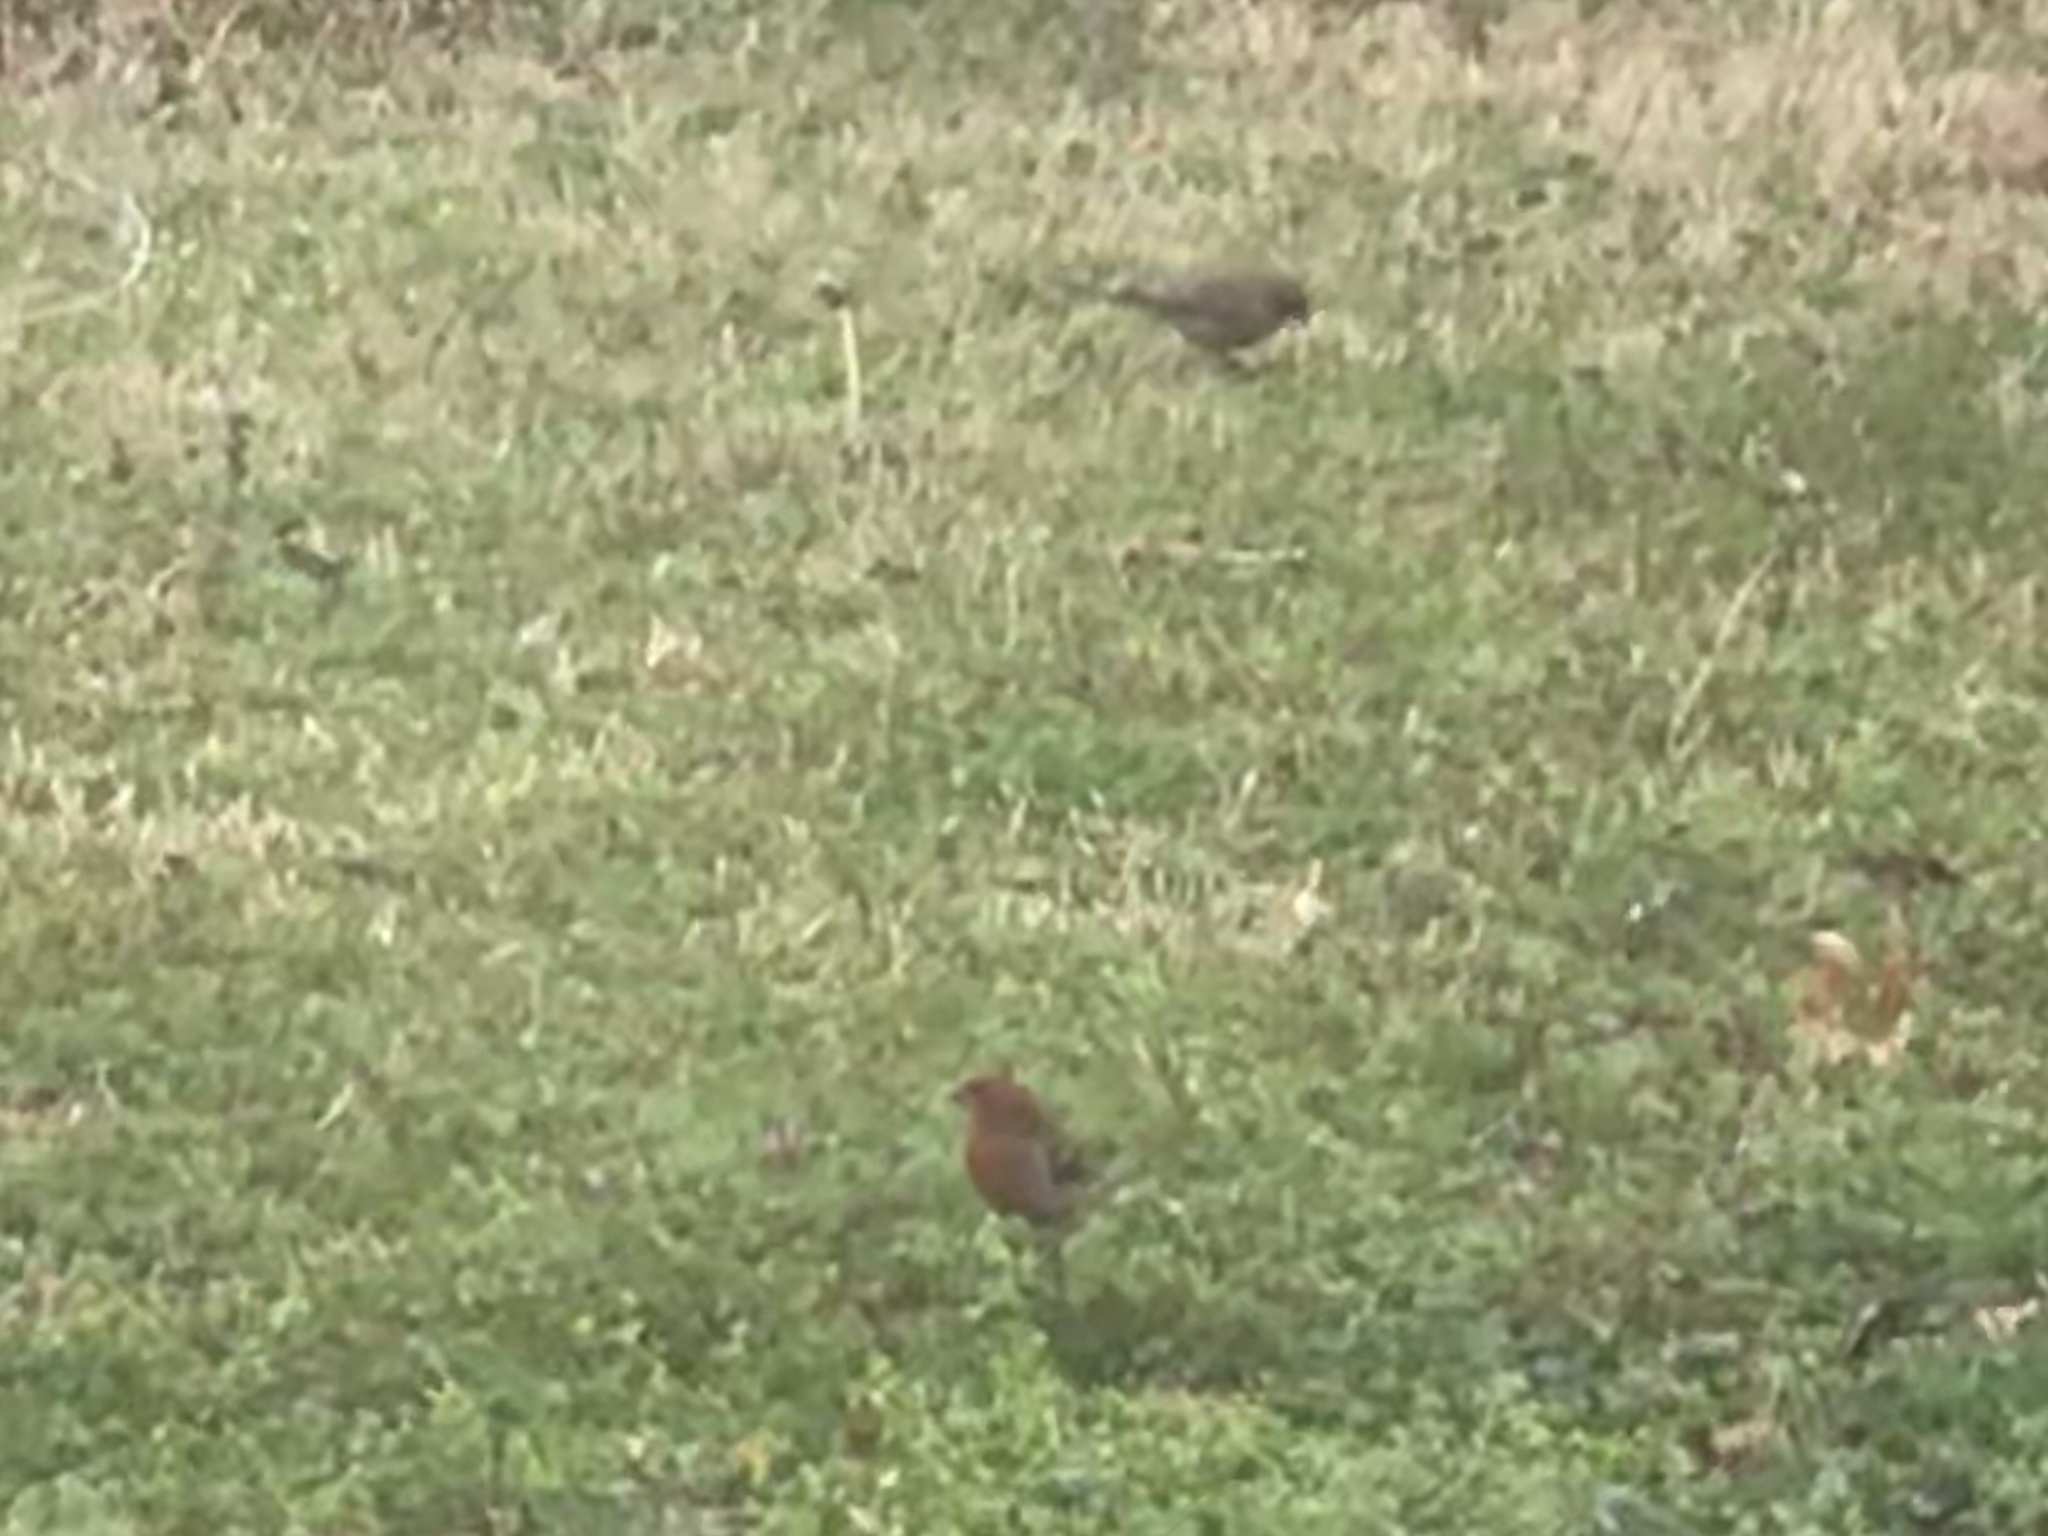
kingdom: Animalia
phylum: Chordata
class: Aves
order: Passeriformes
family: Fringillidae
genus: Haemorhous
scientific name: Haemorhous mexicanus
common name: House finch
